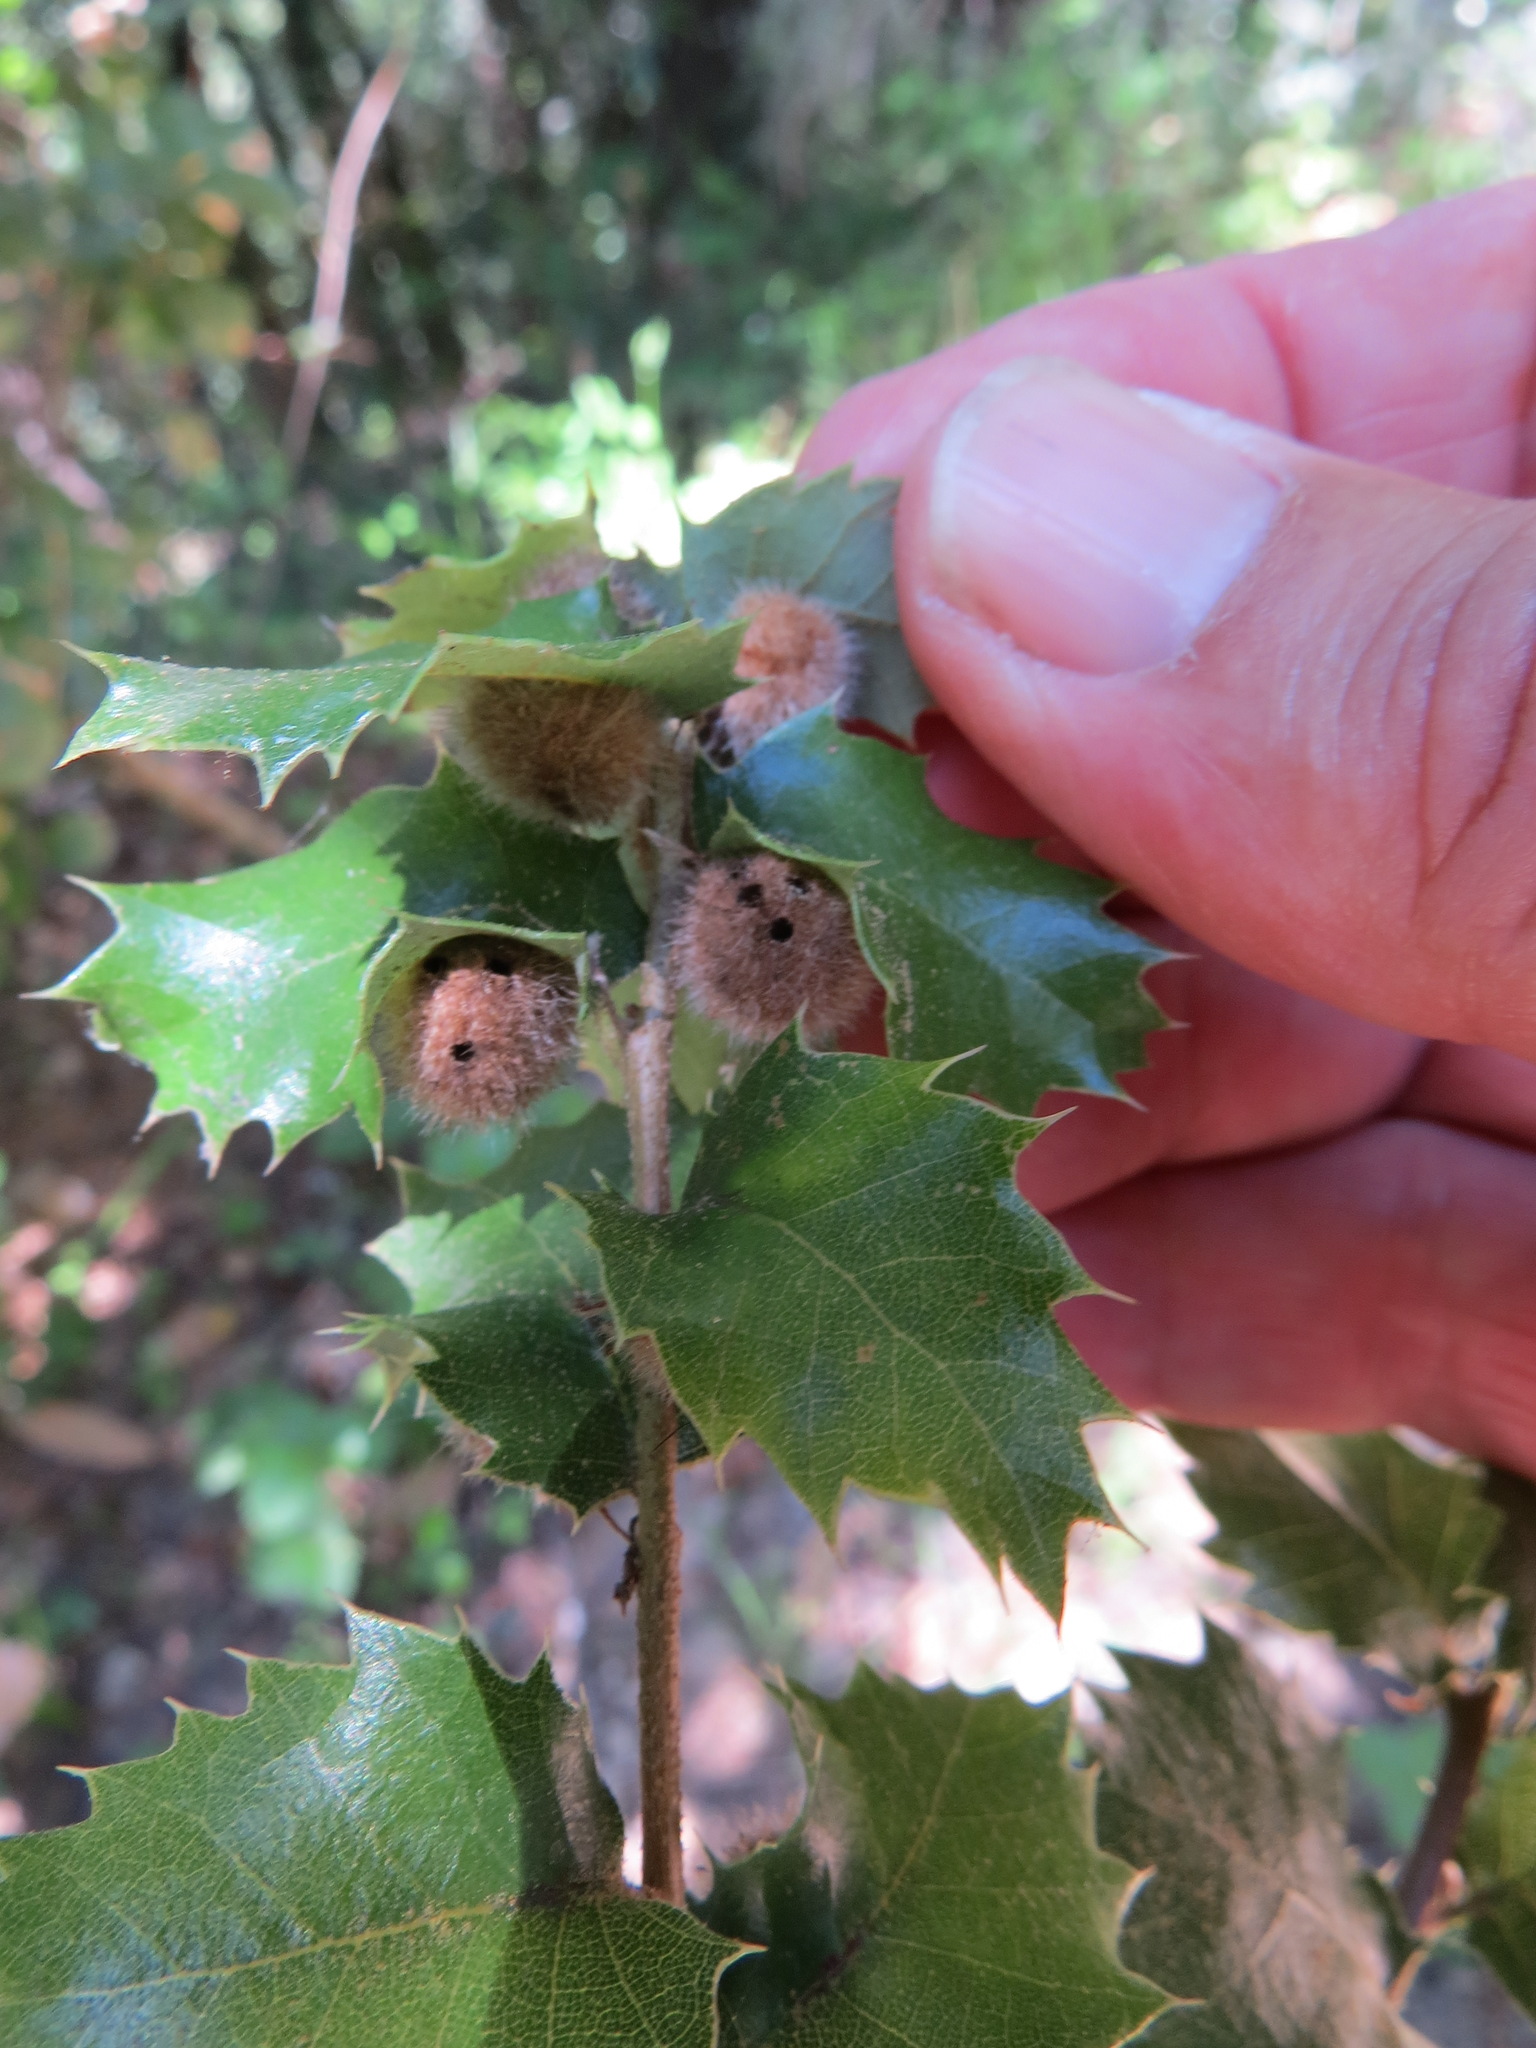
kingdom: Animalia
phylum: Arthropoda
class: Insecta
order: Hymenoptera
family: Cynipidae
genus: Disholandricus
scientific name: Disholandricus
